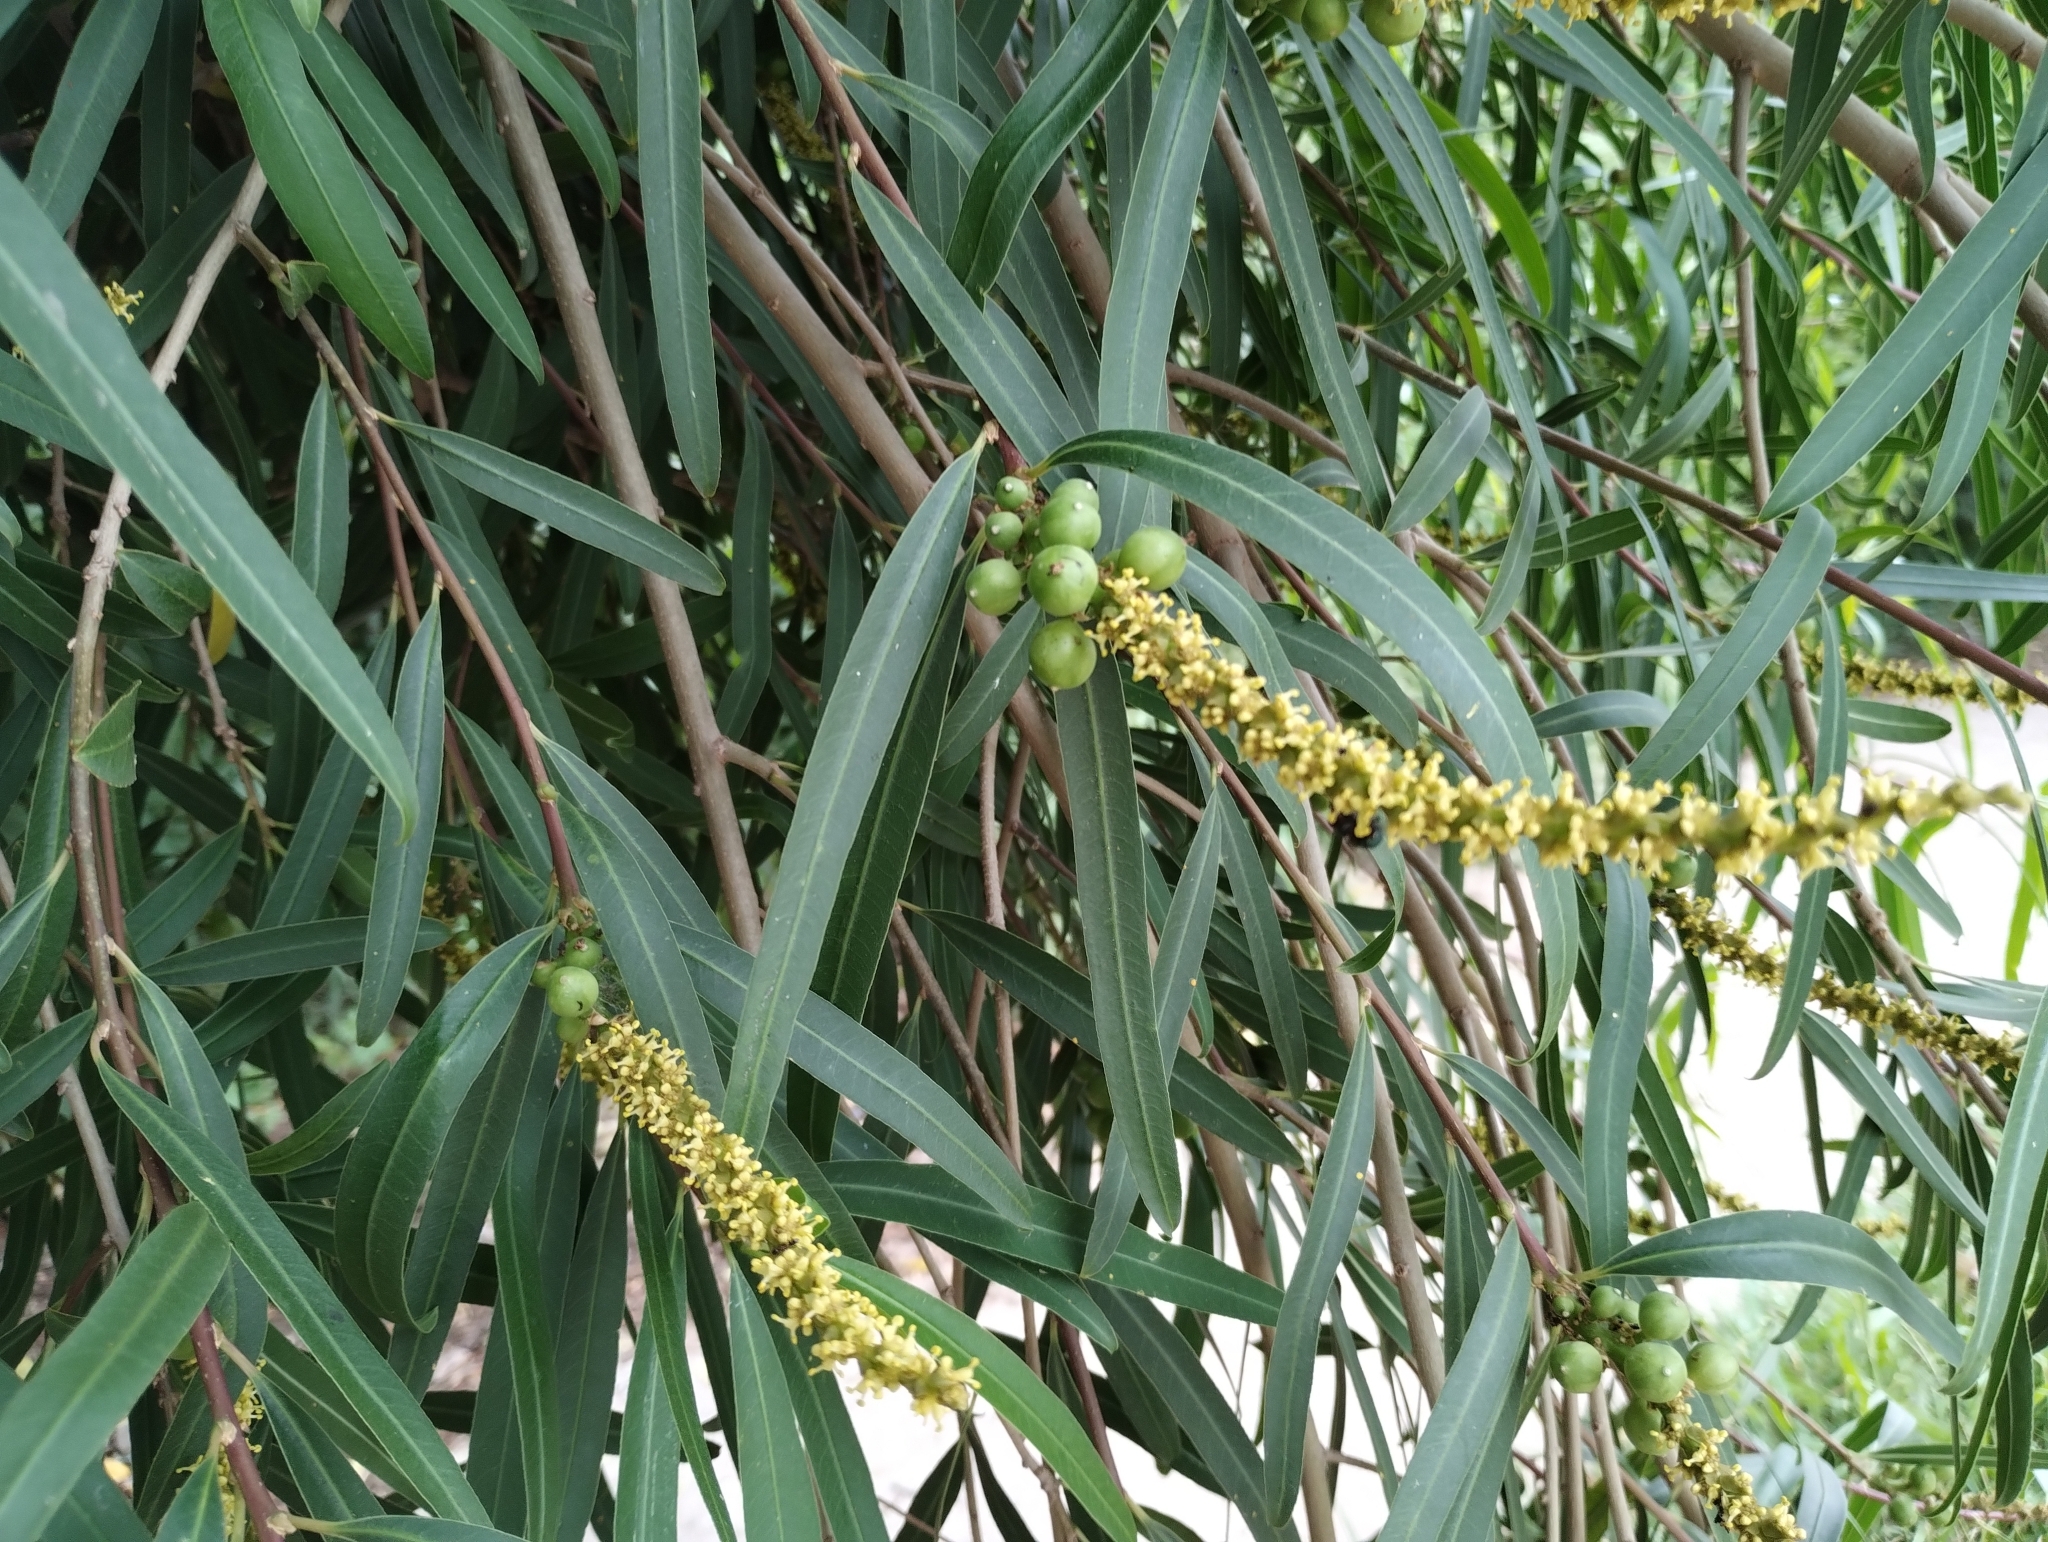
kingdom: Plantae
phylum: Tracheophyta
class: Magnoliopsida
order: Malpighiales
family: Euphorbiaceae
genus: Sapium
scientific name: Sapium haematospermum
